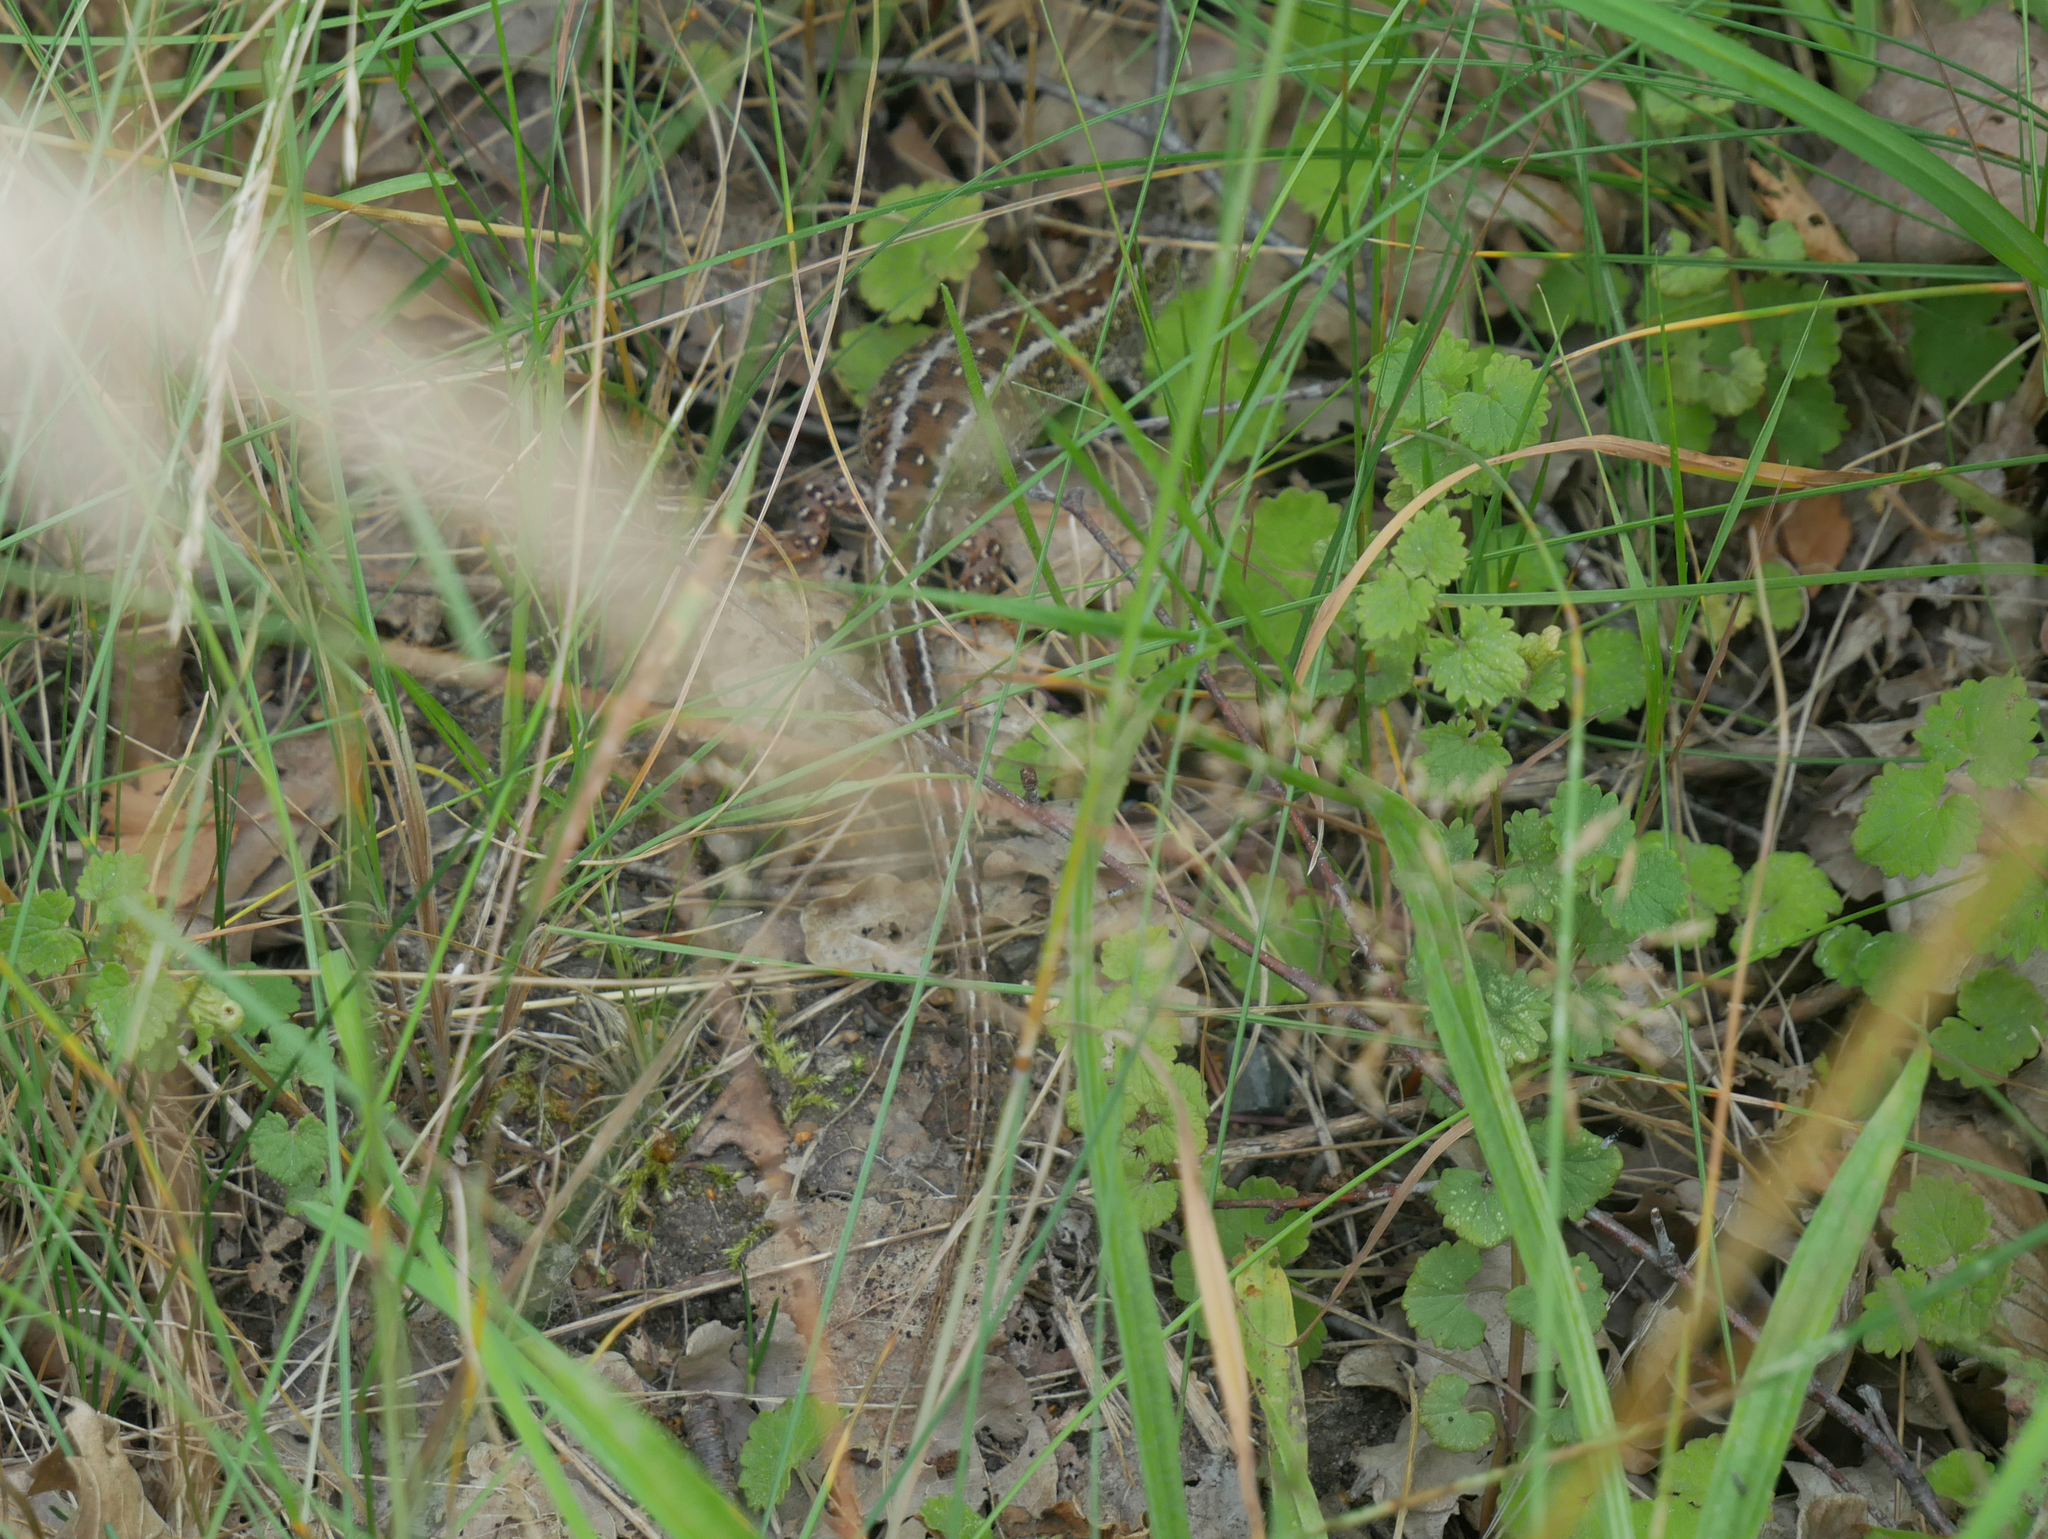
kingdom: Animalia
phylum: Chordata
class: Squamata
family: Lacertidae
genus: Lacerta
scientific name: Lacerta agilis
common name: Sand lizard
